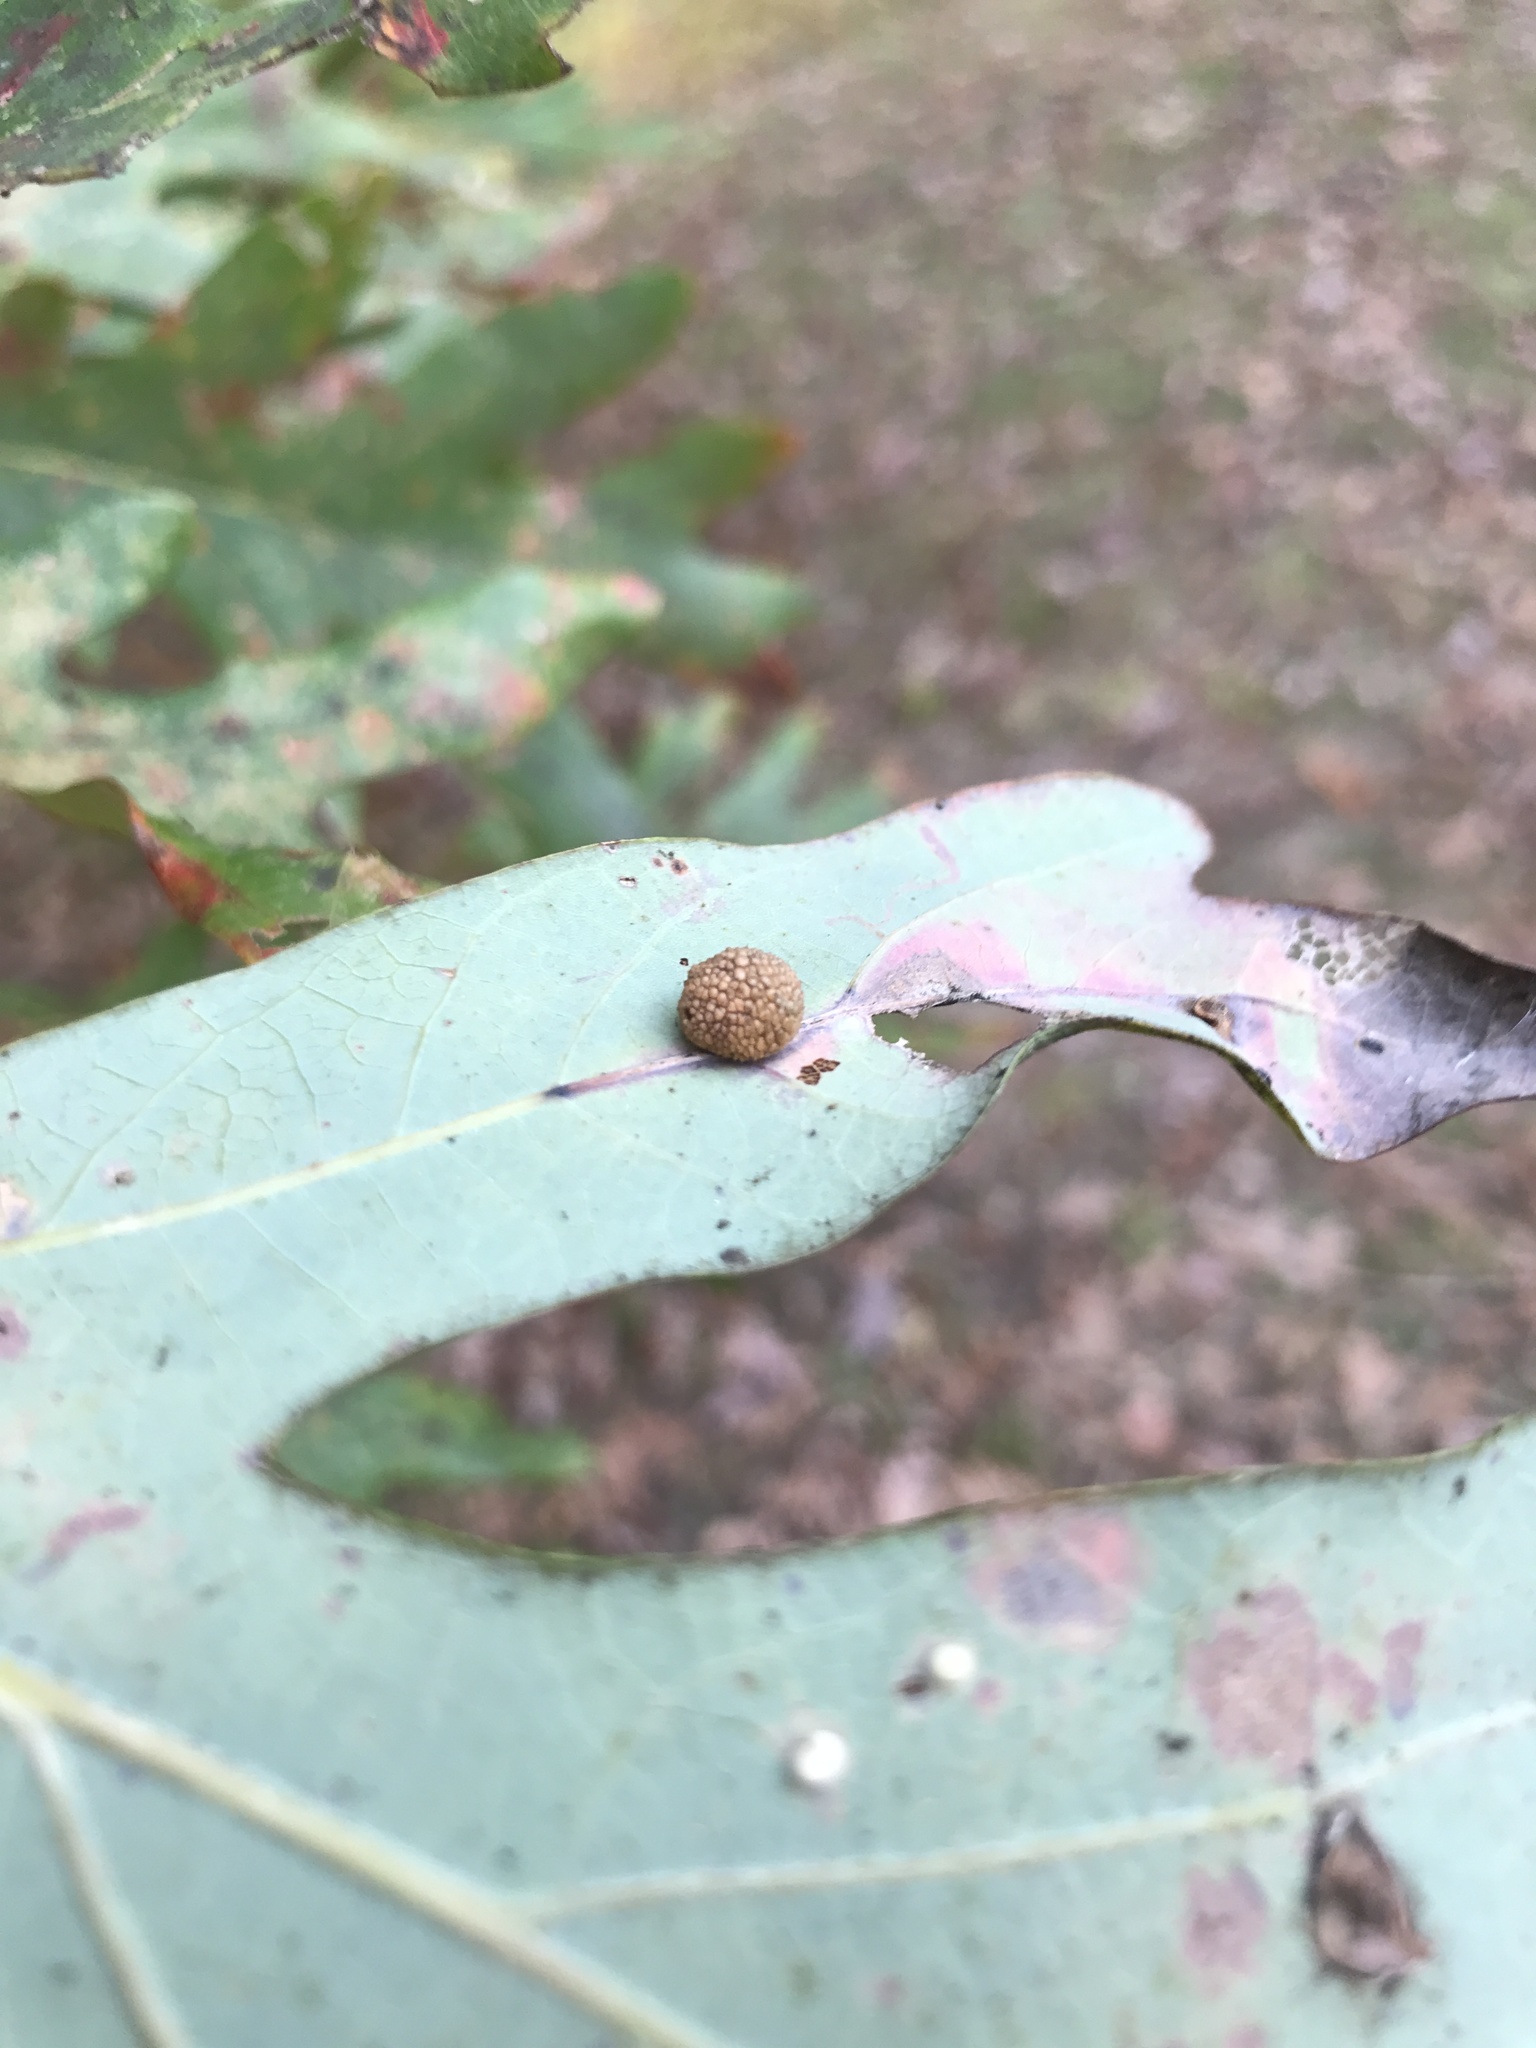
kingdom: Animalia
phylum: Arthropoda
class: Insecta
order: Hymenoptera
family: Cynipidae
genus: Acraspis
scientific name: Acraspis
